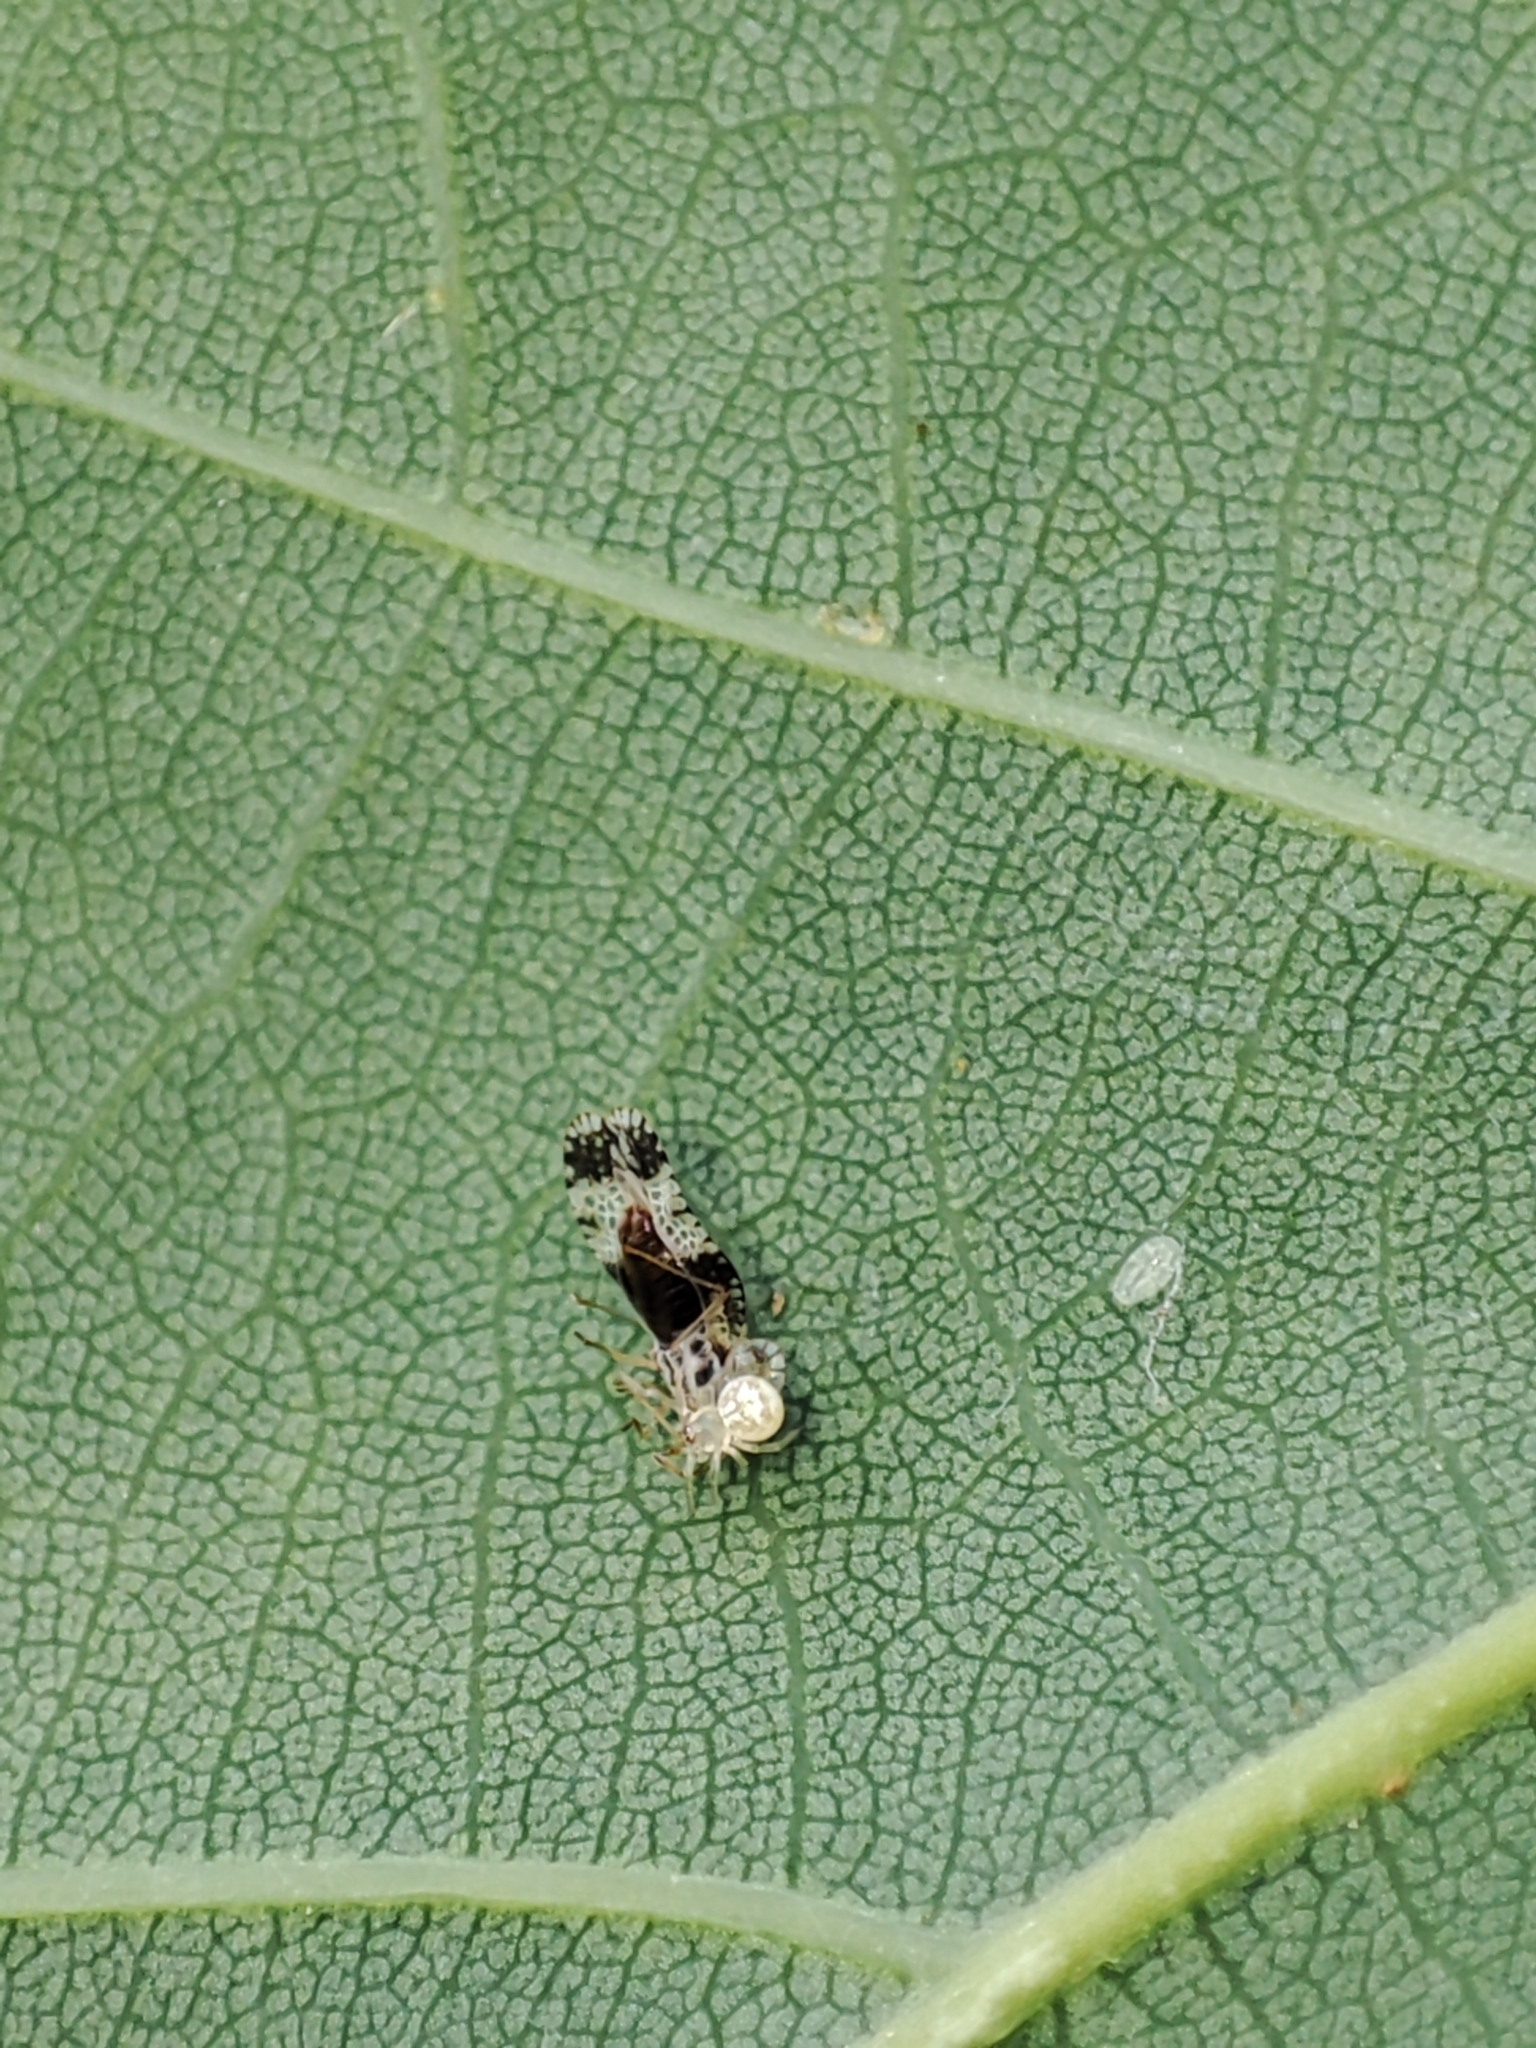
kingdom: Animalia
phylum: Arthropoda
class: Insecta
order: Hemiptera
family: Tingidae
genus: Stephanitis
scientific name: Stephanitis pyri
